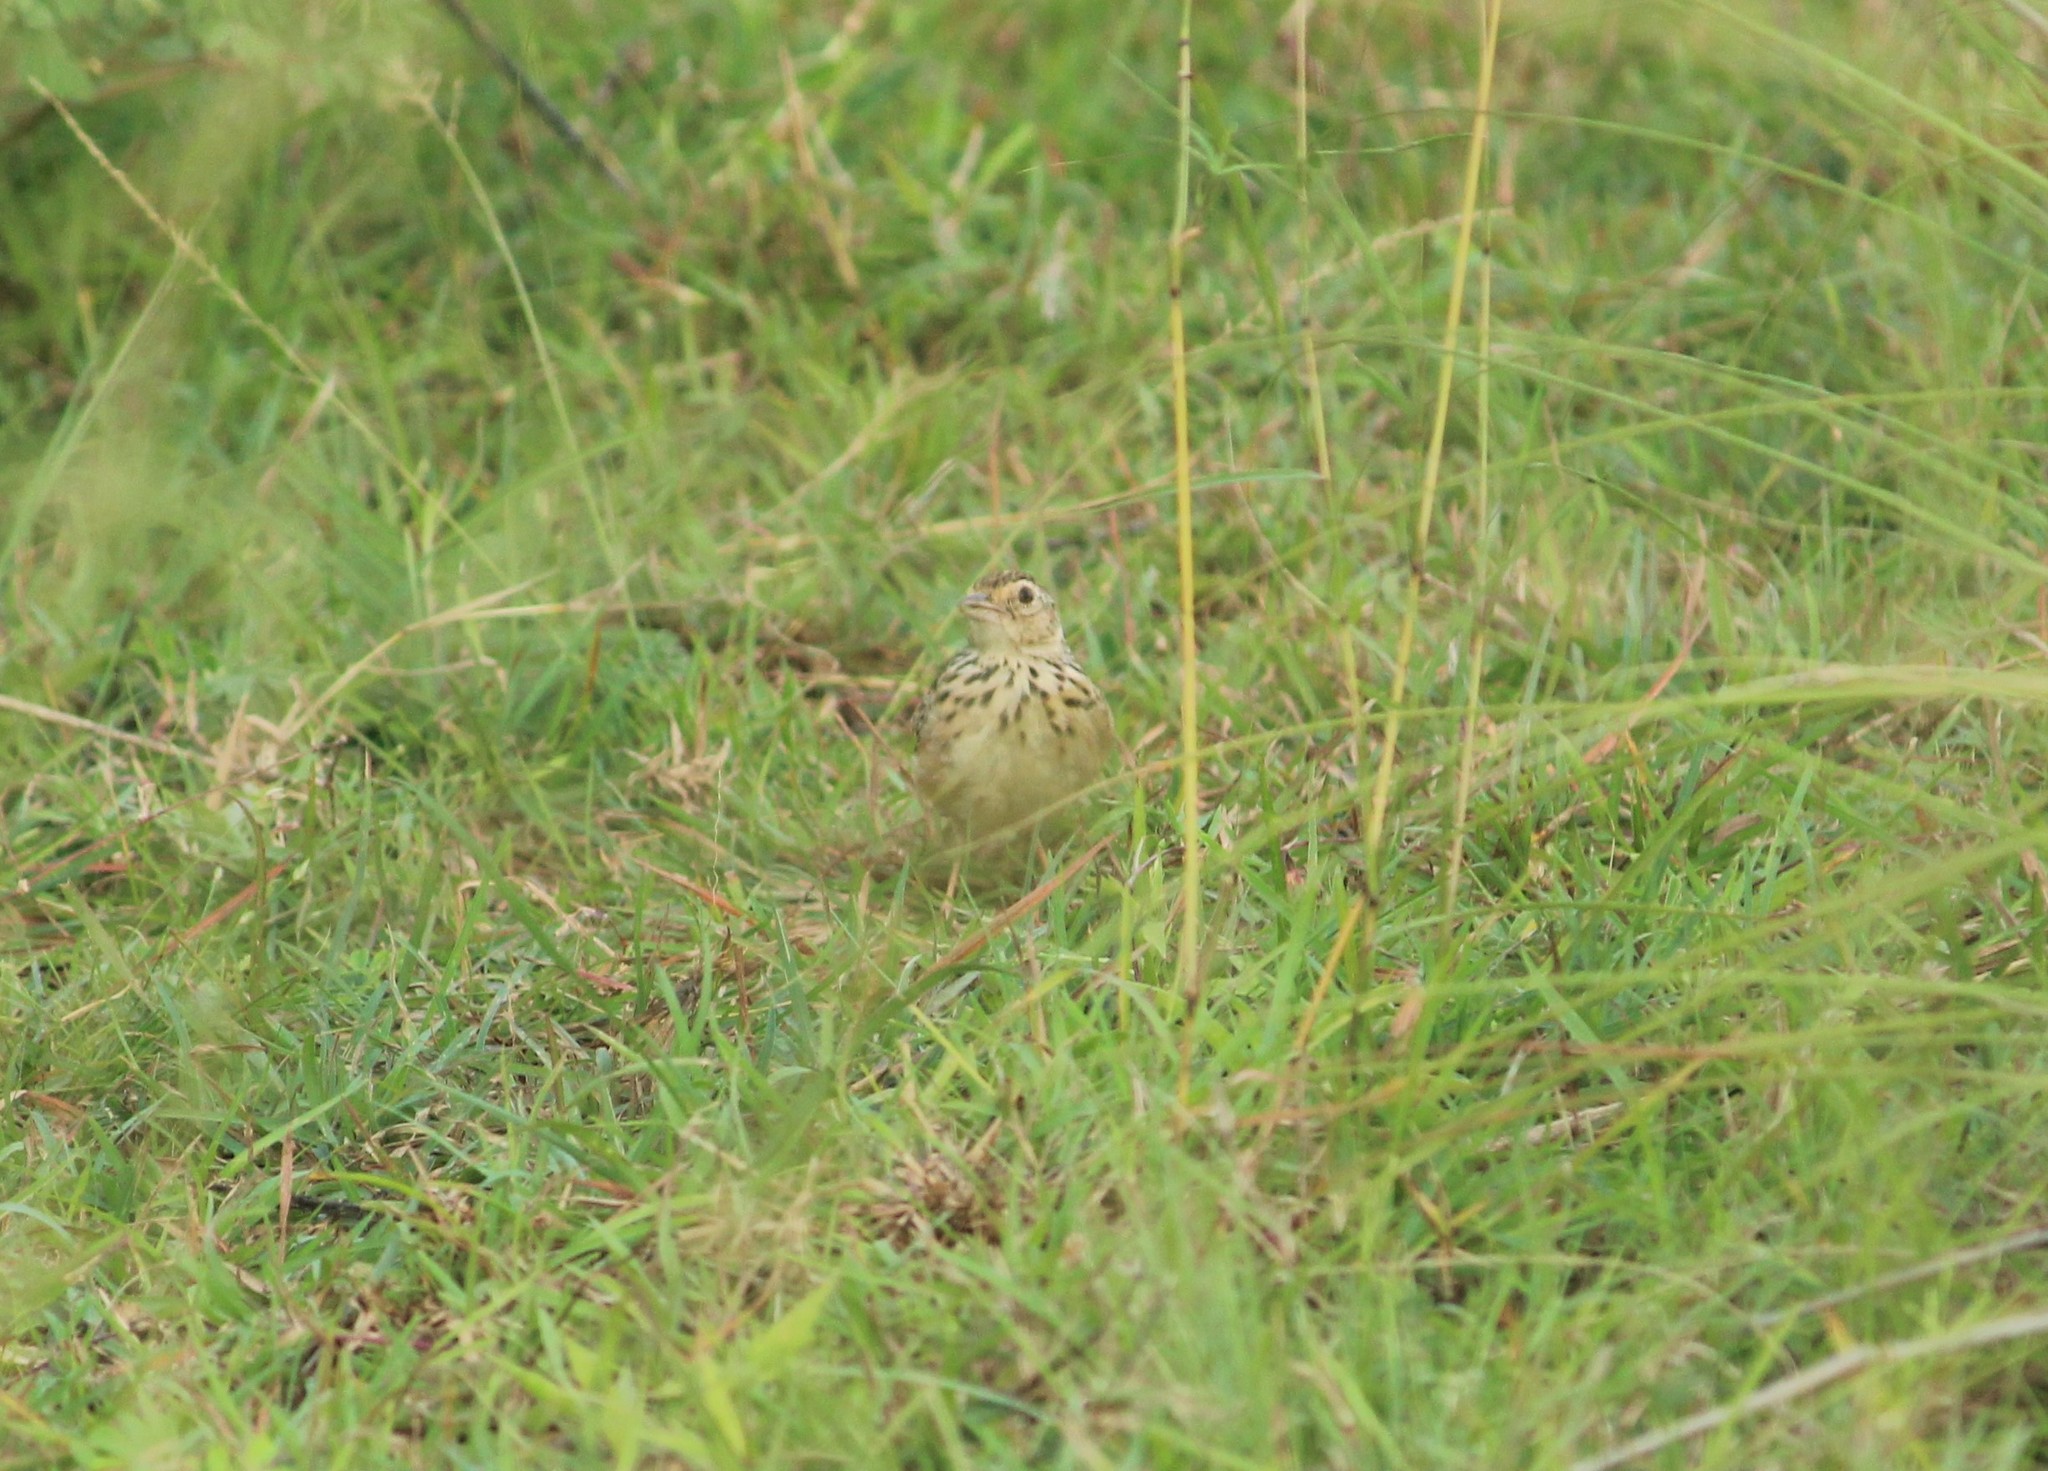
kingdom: Animalia
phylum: Chordata
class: Aves
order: Passeriformes
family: Alaudidae
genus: Mirafra
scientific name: Mirafra affinis
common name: Jerdon's bushlark
